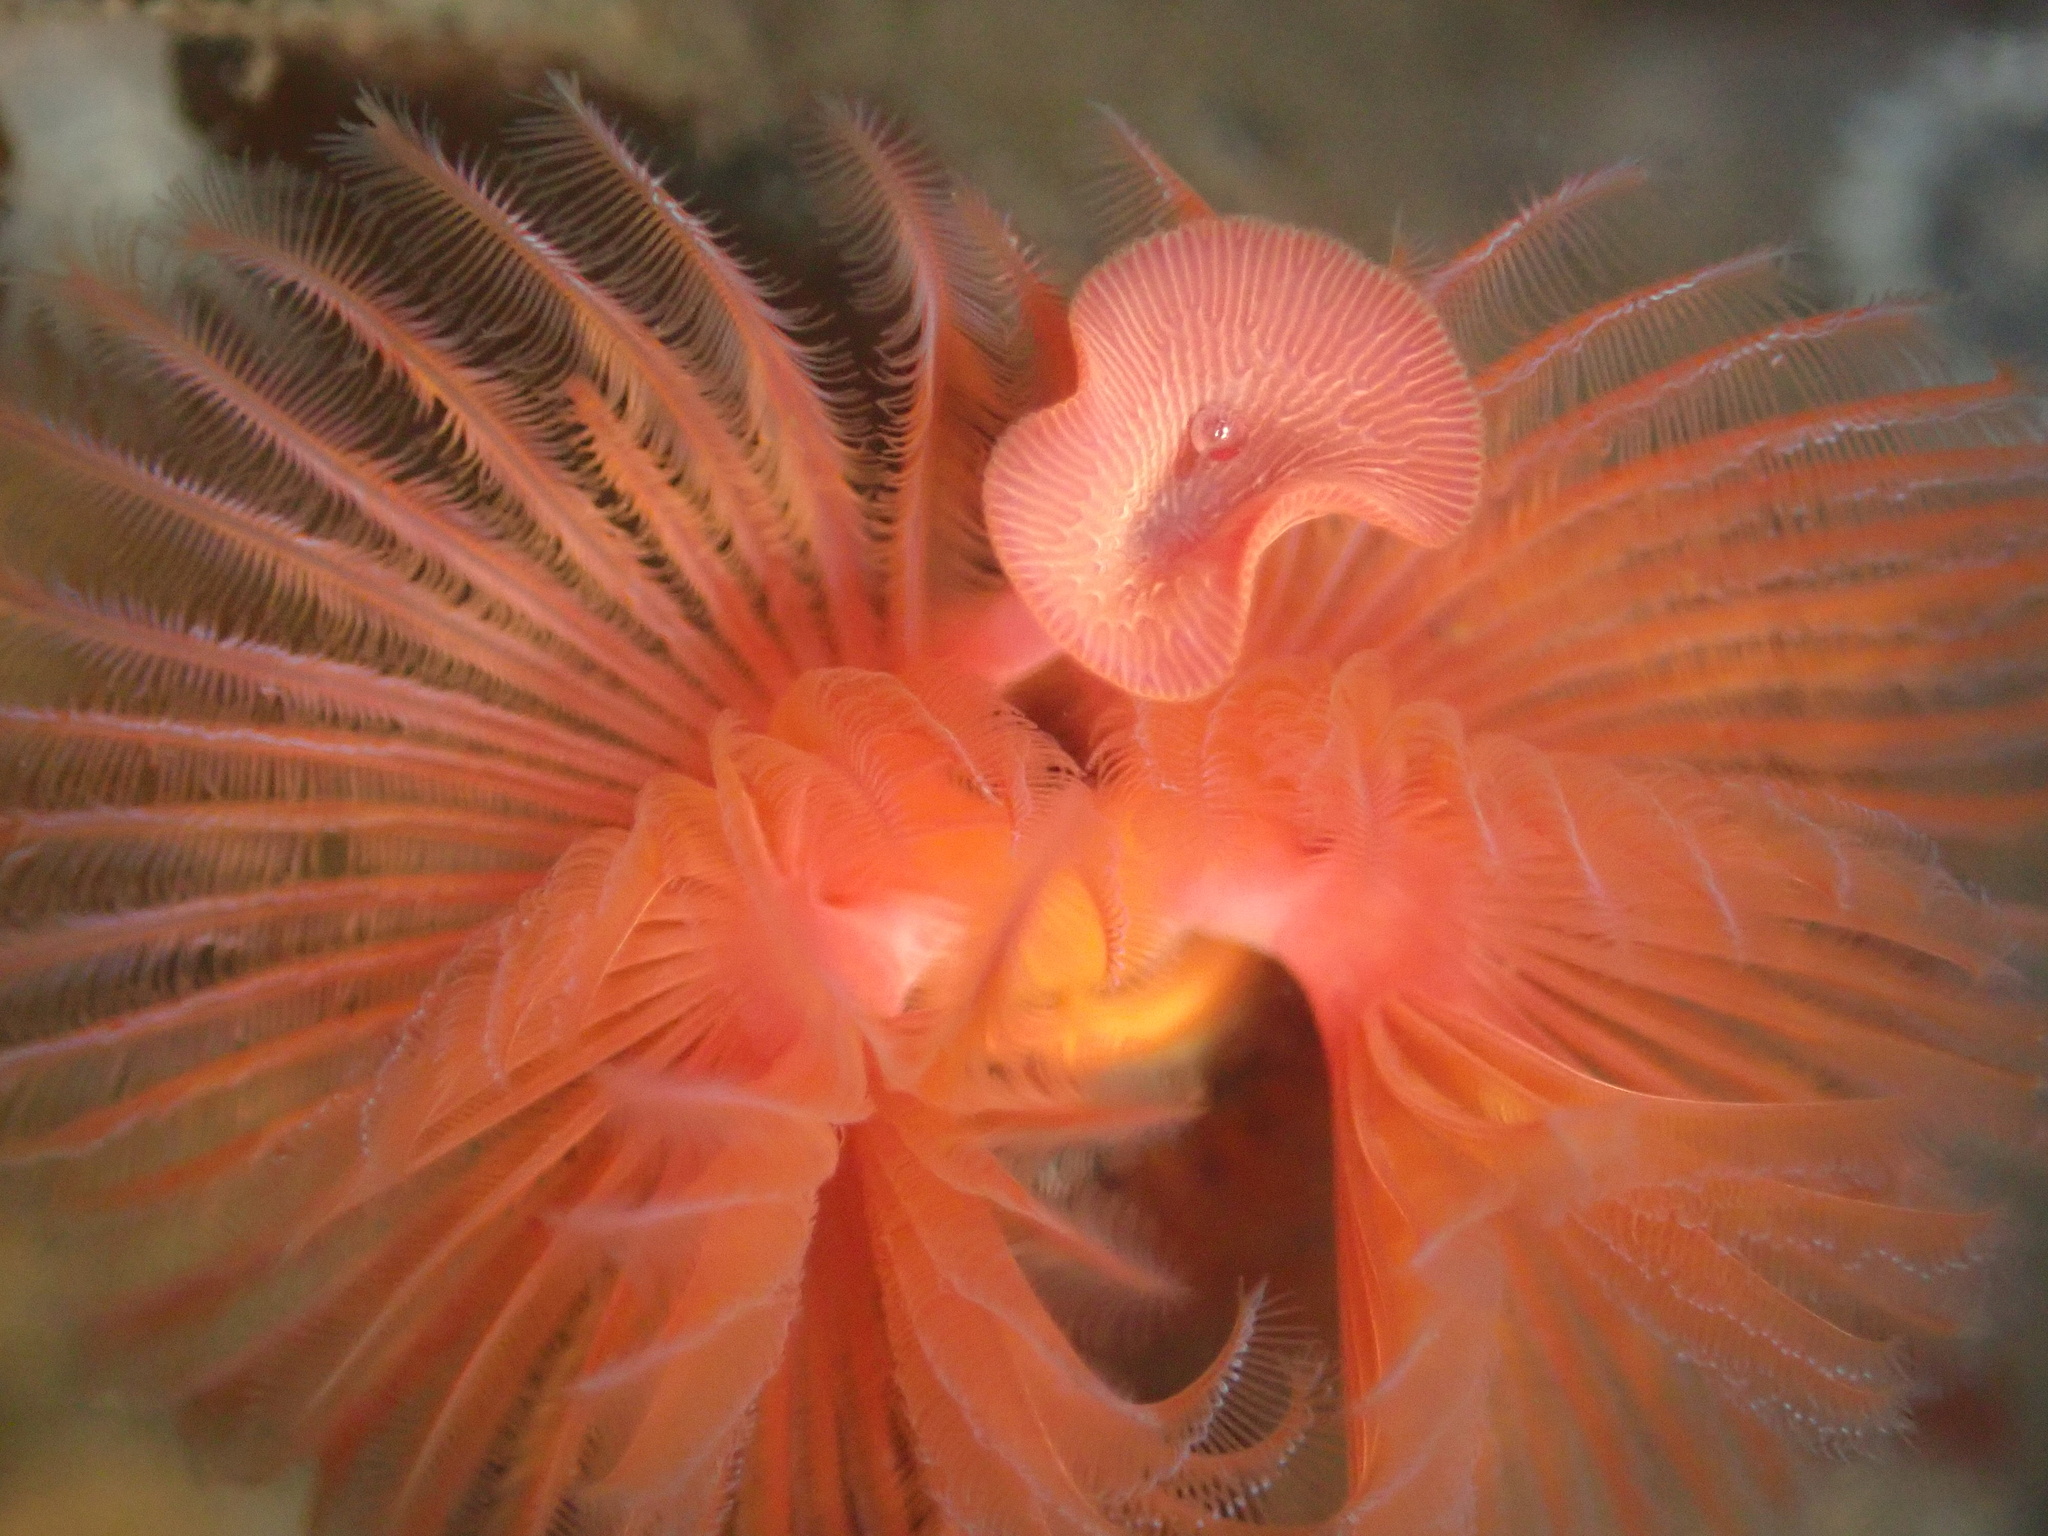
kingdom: Animalia
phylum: Annelida
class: Polychaeta
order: Sabellida
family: Serpulidae
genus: Serpula
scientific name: Serpula columbiana
